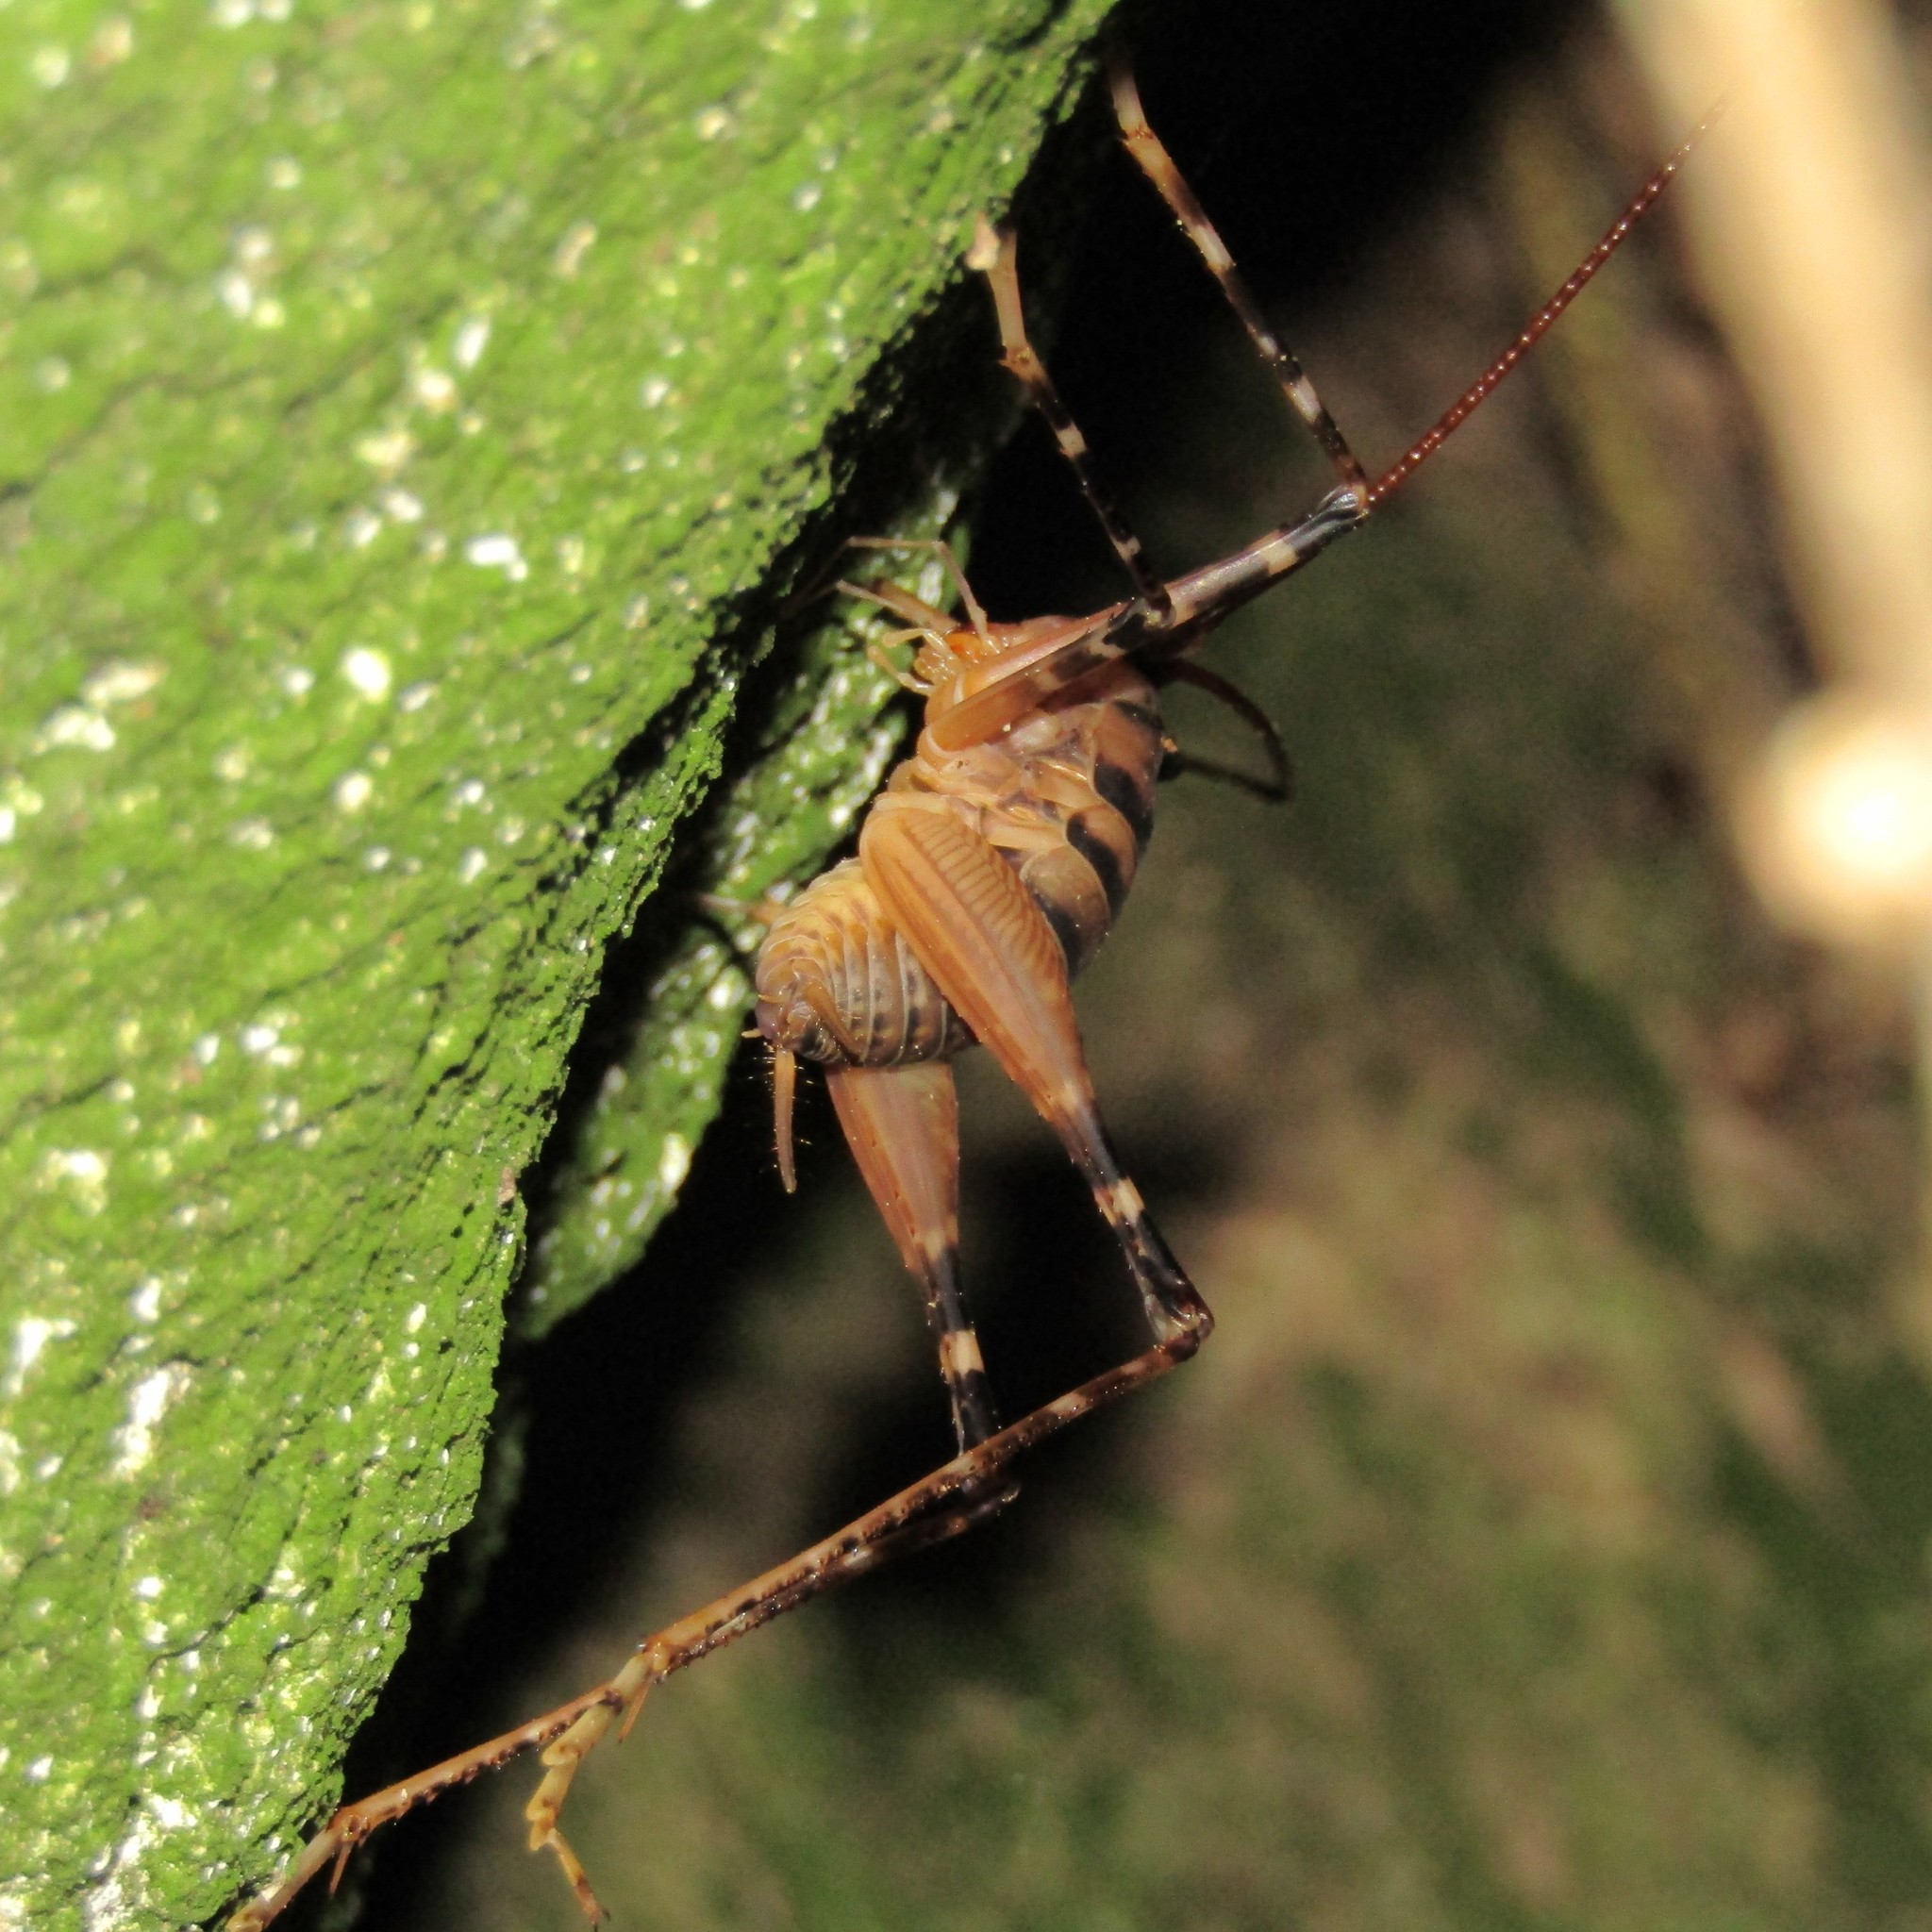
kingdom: Animalia
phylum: Arthropoda
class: Insecta
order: Orthoptera
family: Rhaphidophoridae
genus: Pachyrhamma
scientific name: Pachyrhamma edwardsii
